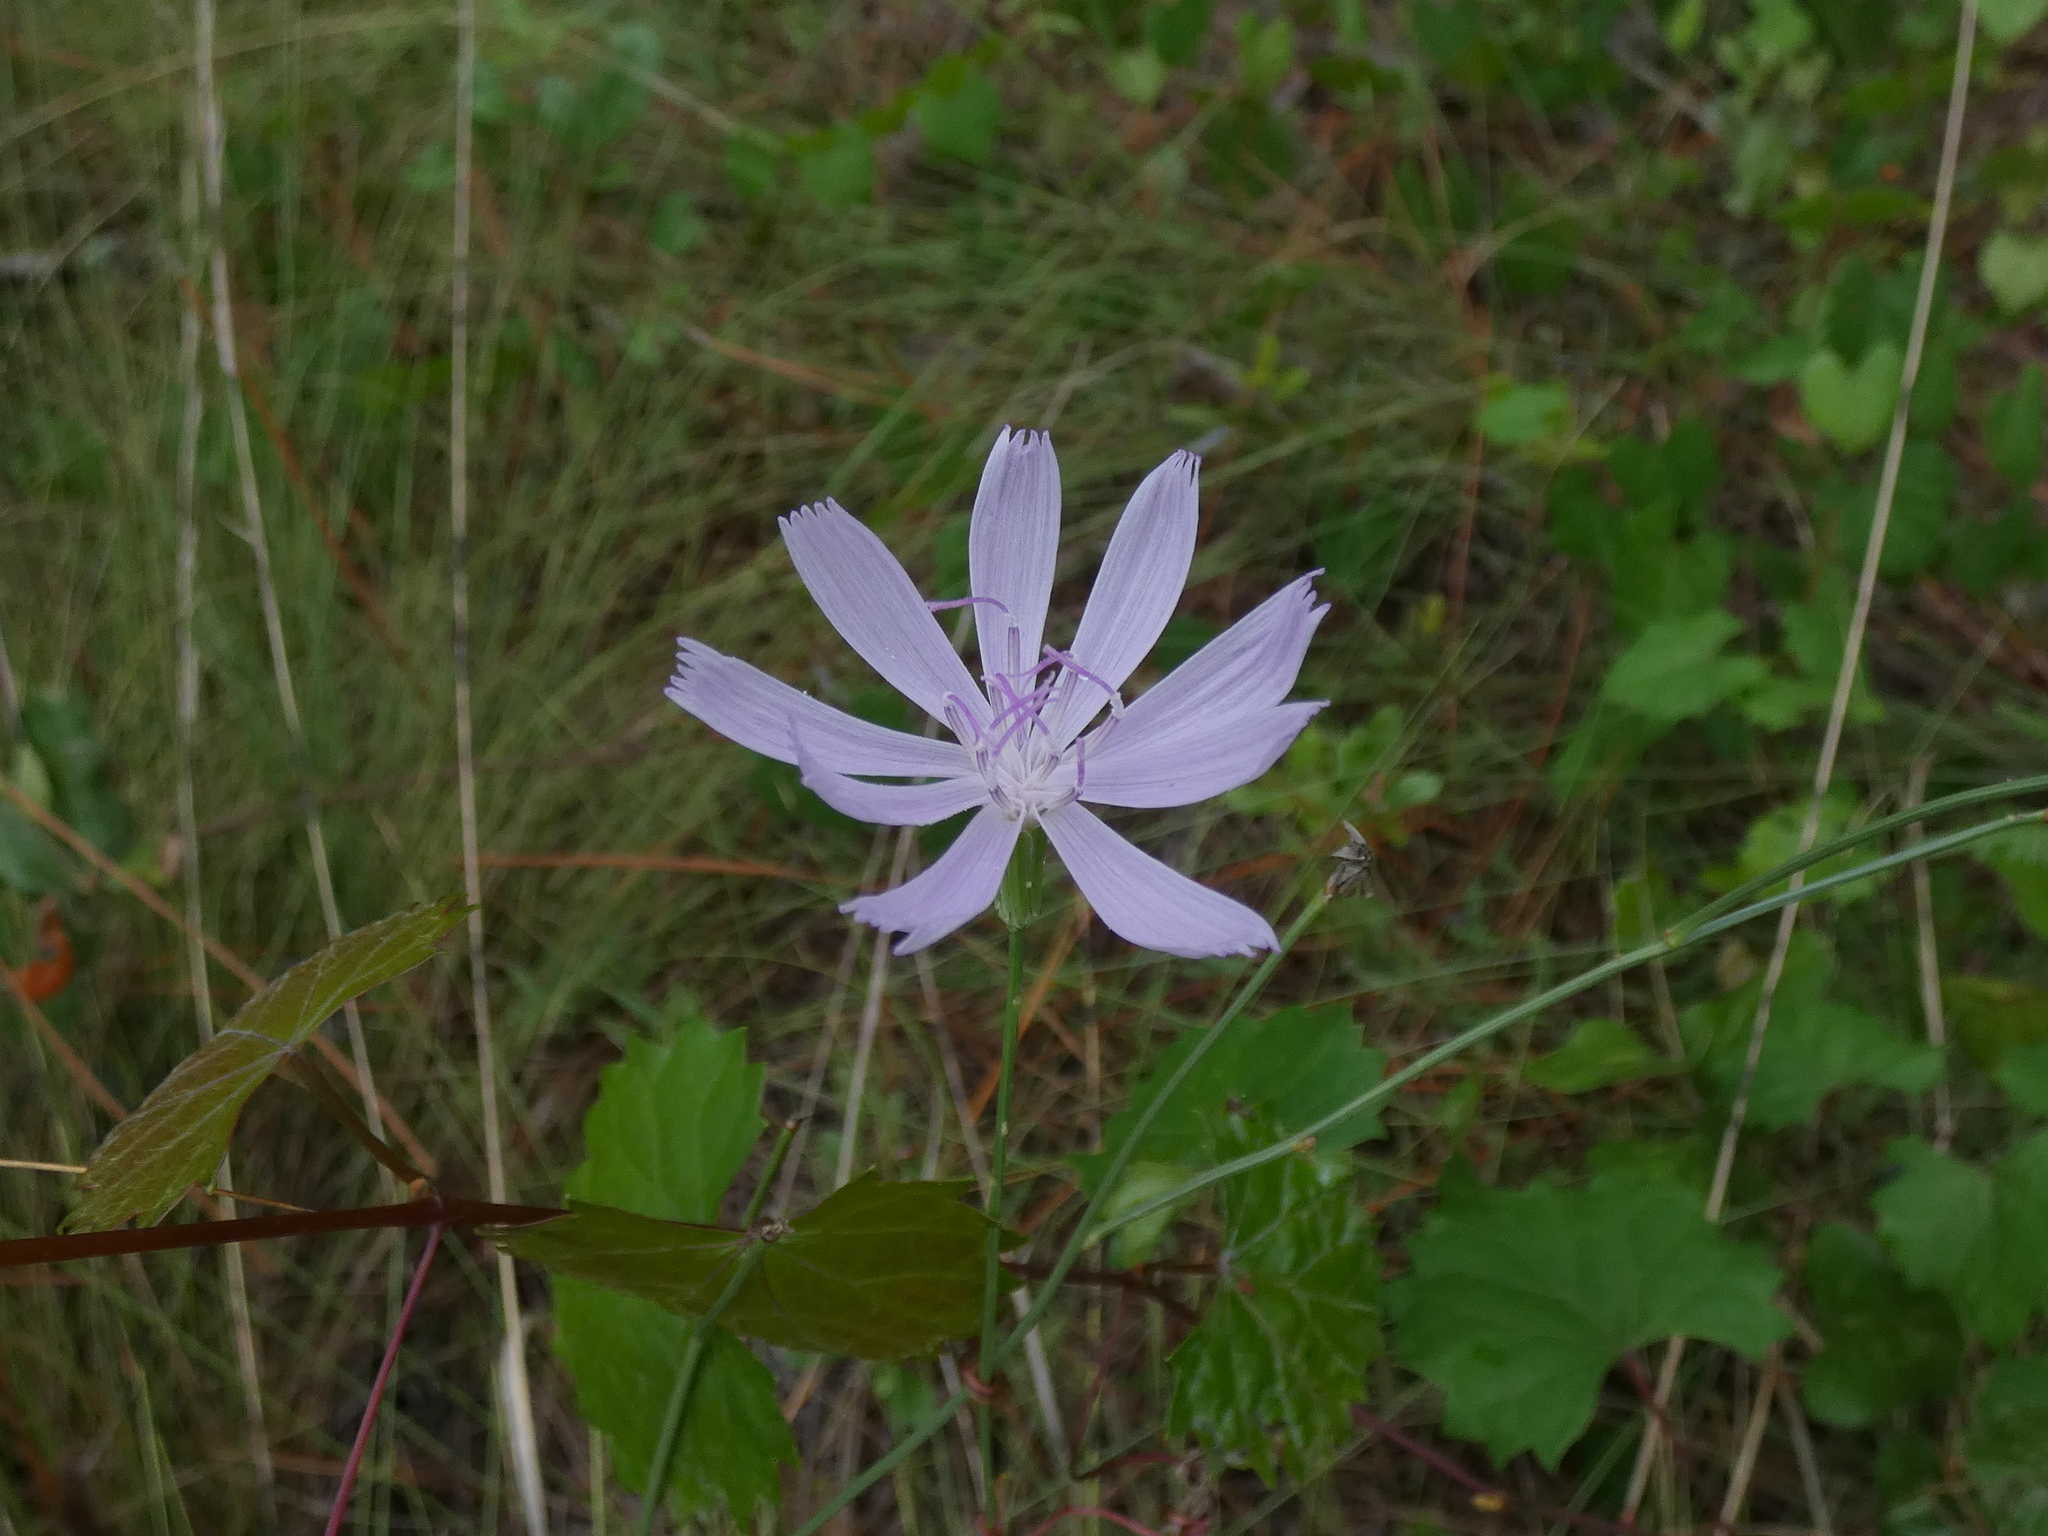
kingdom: Plantae
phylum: Tracheophyta
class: Magnoliopsida
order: Asterales
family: Asteraceae
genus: Lygodesmia
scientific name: Lygodesmia aphylla
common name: Rose-rush
